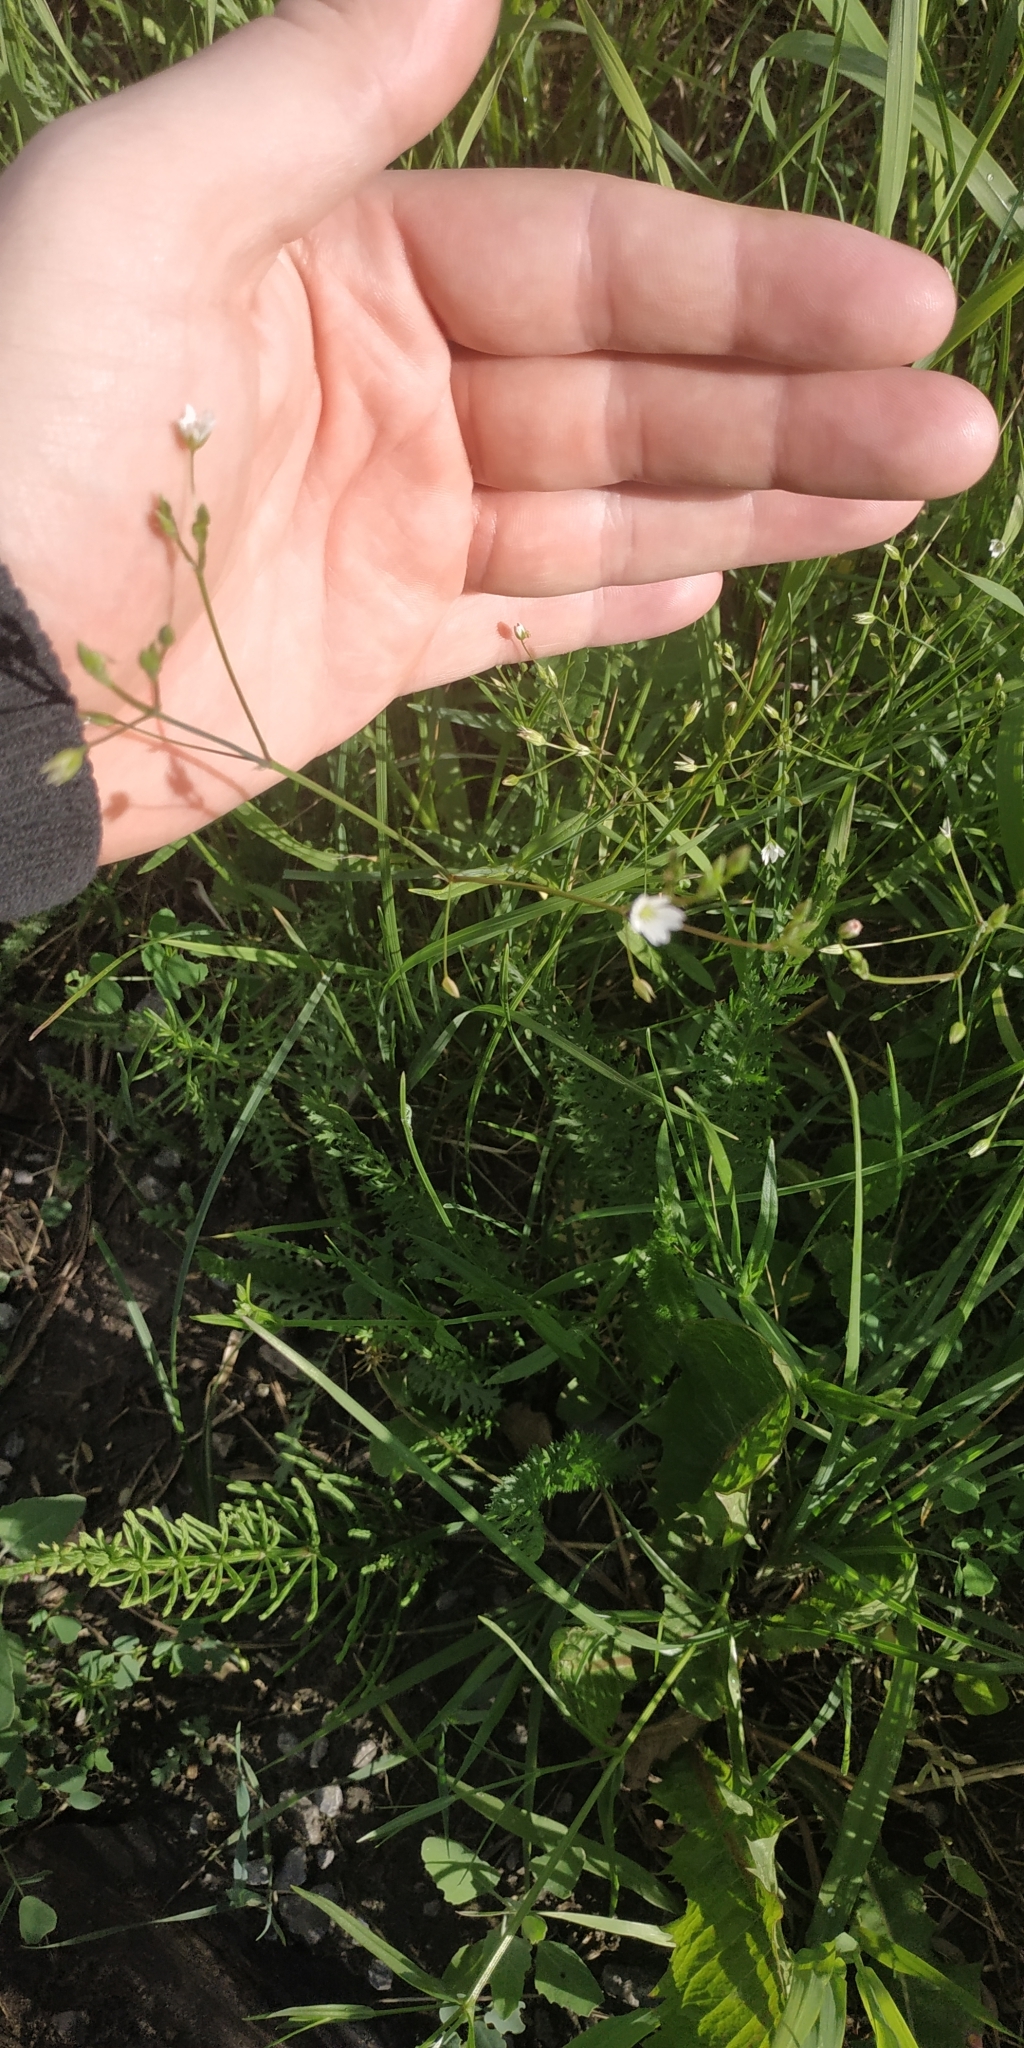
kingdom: Plantae
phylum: Tracheophyta
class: Magnoliopsida
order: Caryophyllales
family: Caryophyllaceae
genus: Stellaria
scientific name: Stellaria graminea
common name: Grass-like starwort
